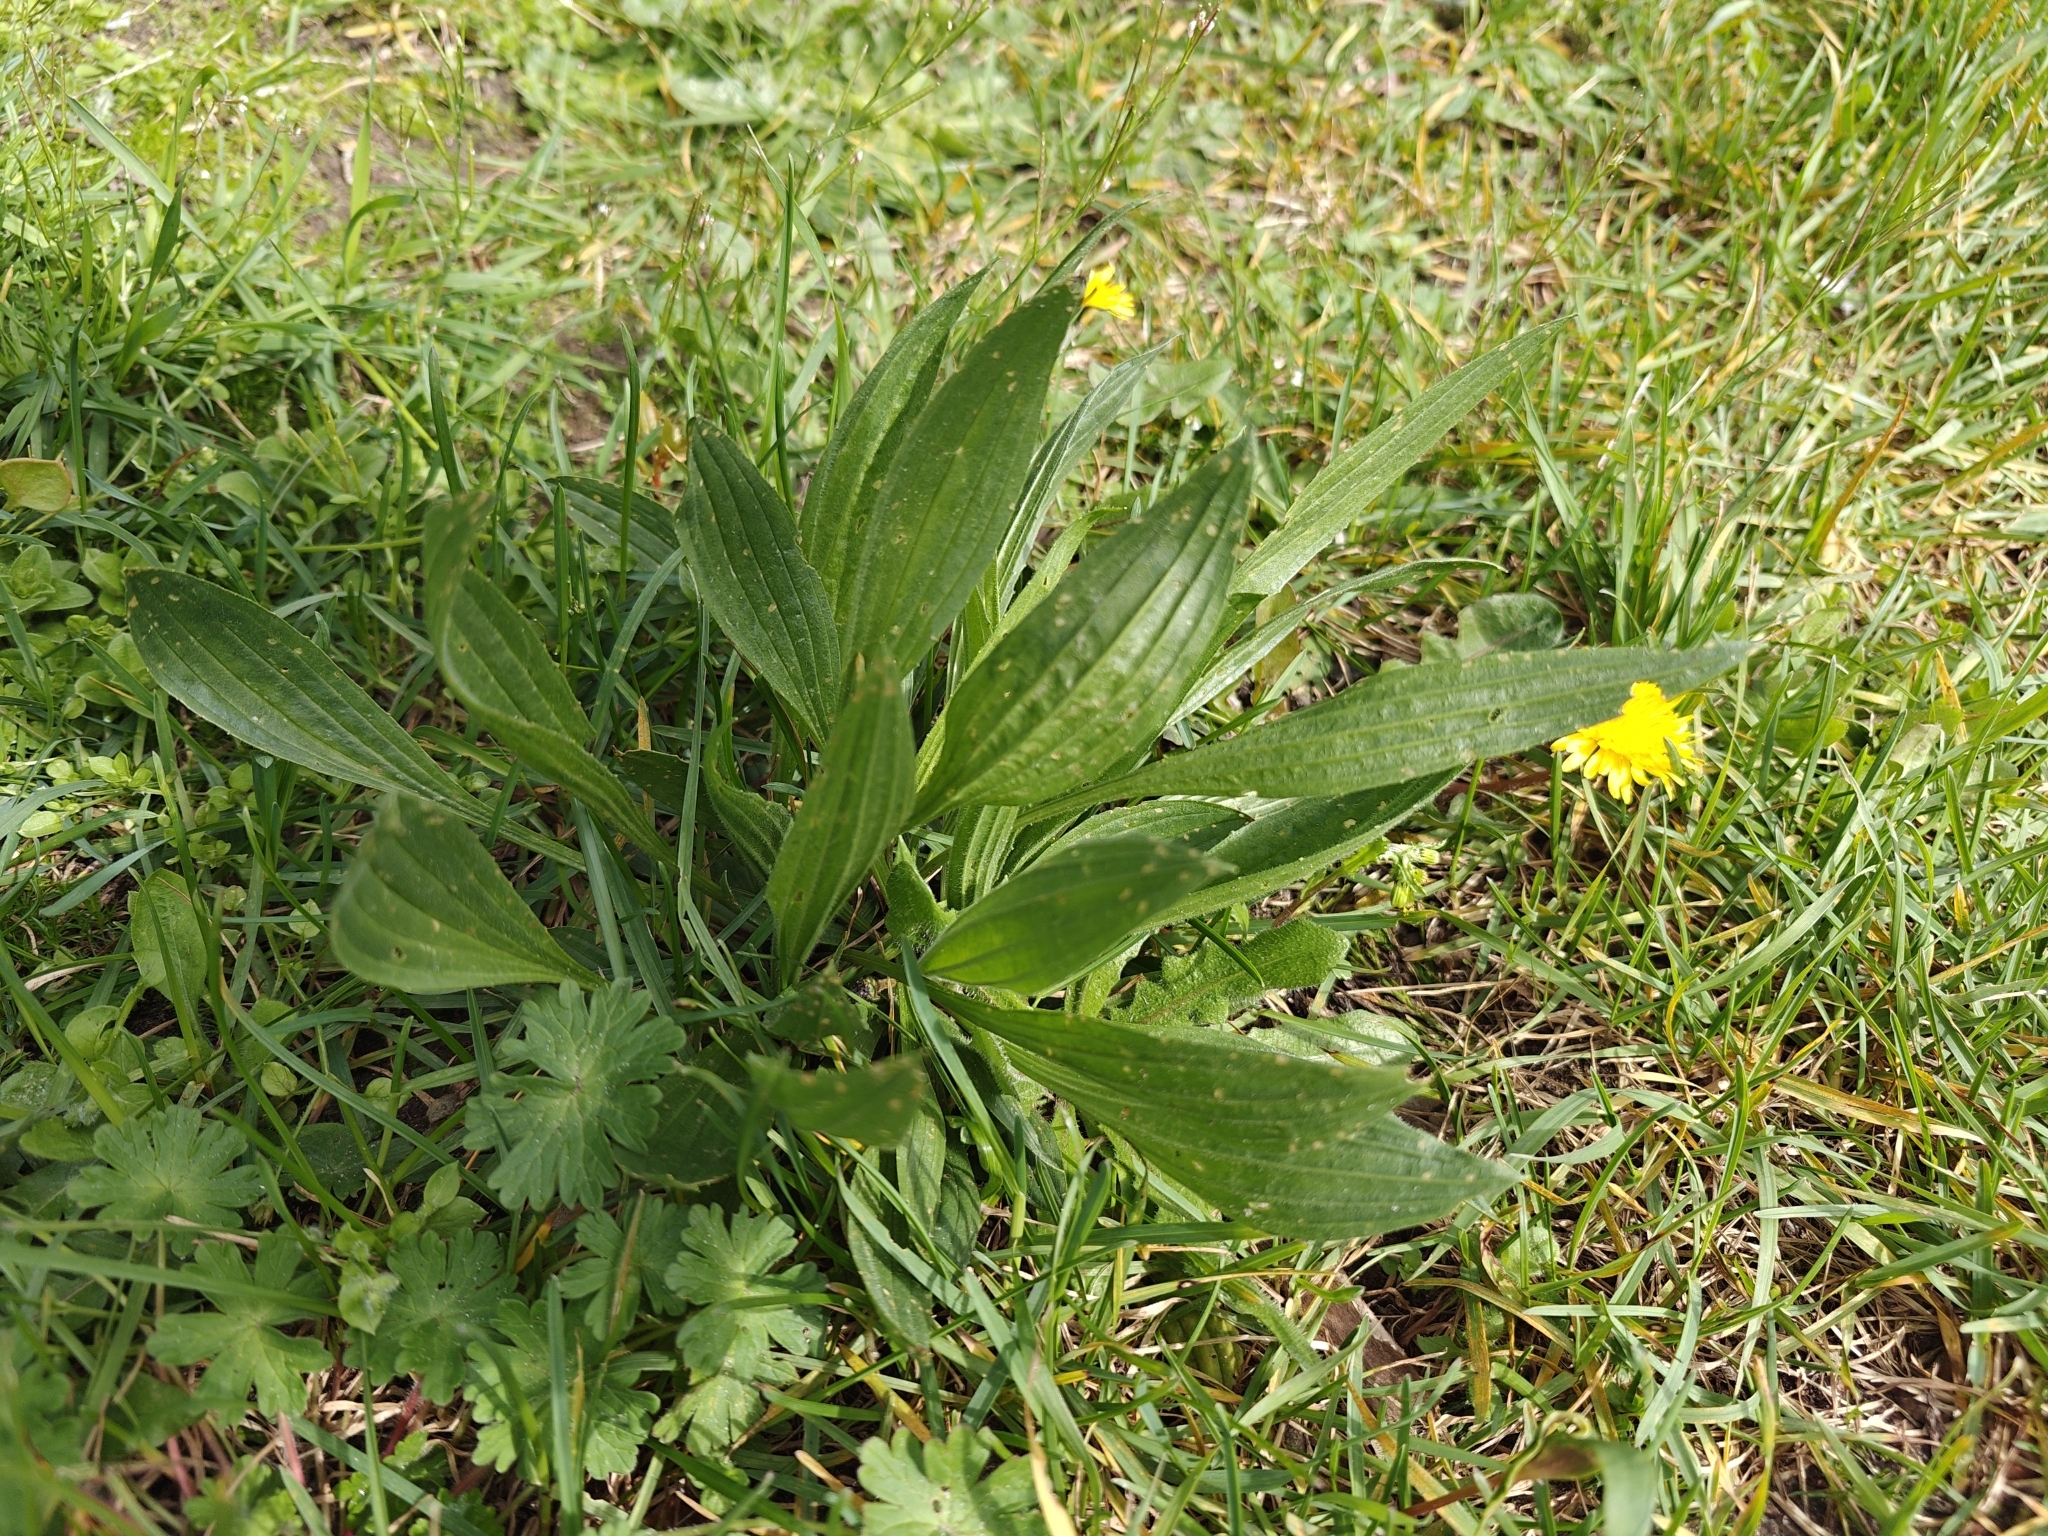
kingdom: Plantae
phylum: Tracheophyta
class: Magnoliopsida
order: Lamiales
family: Plantaginaceae
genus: Plantago
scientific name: Plantago lanceolata
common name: Ribwort plantain
